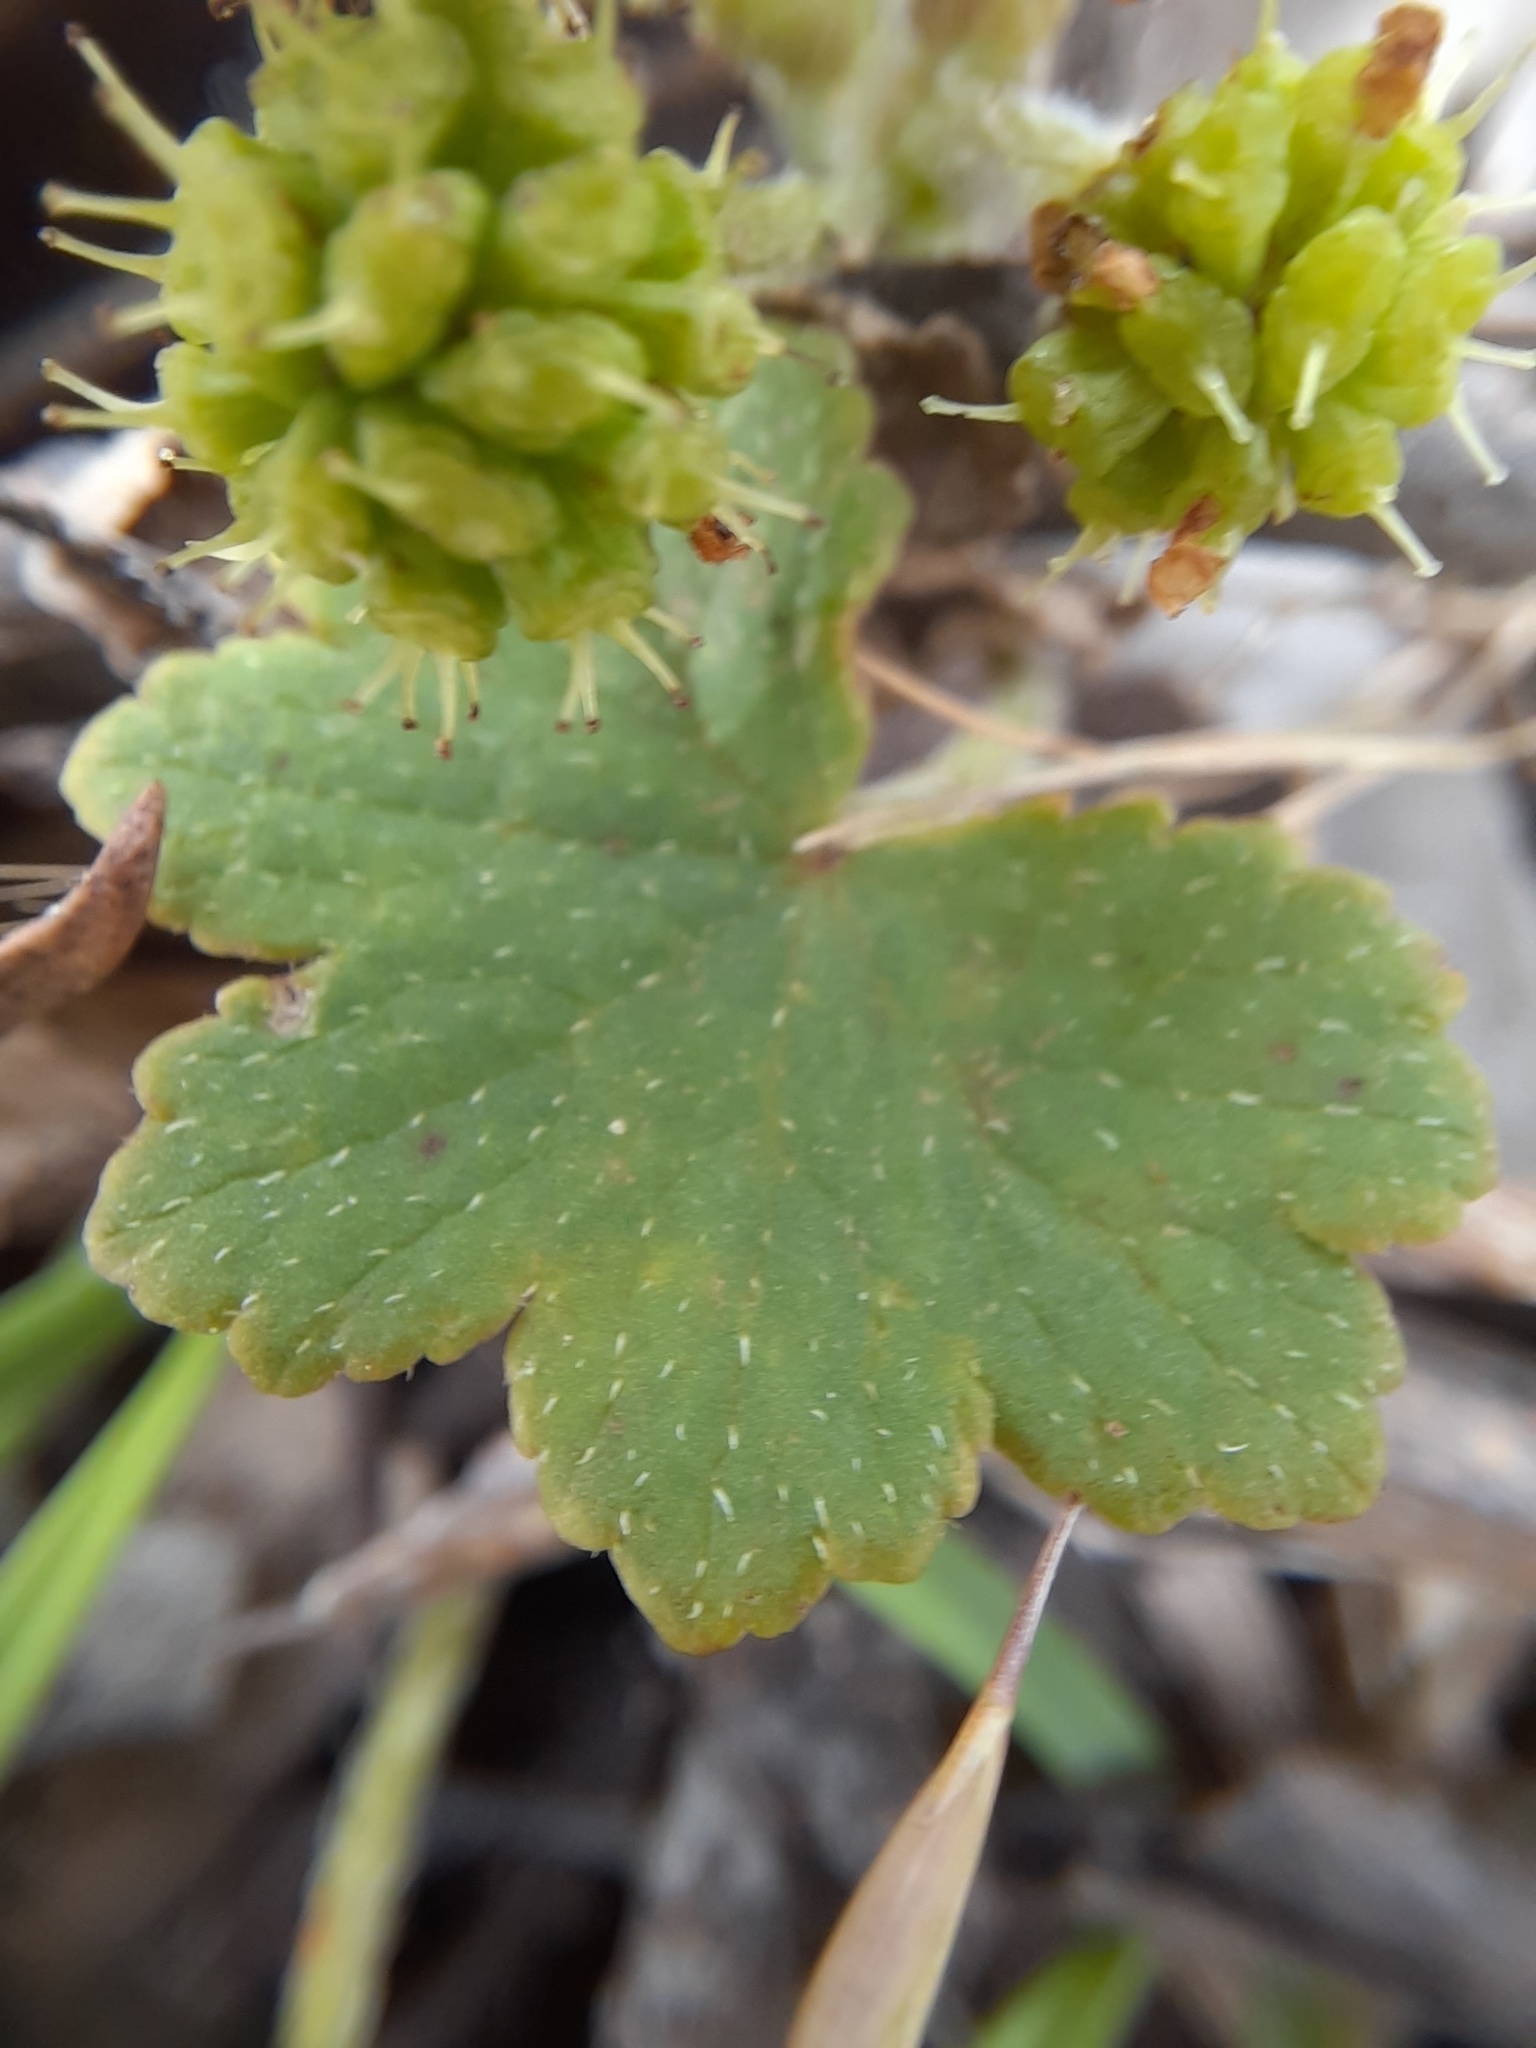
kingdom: Plantae
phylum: Tracheophyta
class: Magnoliopsida
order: Apiales
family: Araliaceae
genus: Hydrocotyle
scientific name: Hydrocotyle laxiflora
